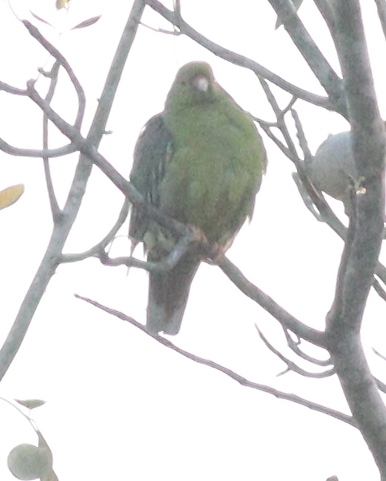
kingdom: Animalia
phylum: Chordata
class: Aves
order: Columbiformes
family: Columbidae
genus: Treron
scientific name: Treron calvus
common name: African green pigeon
